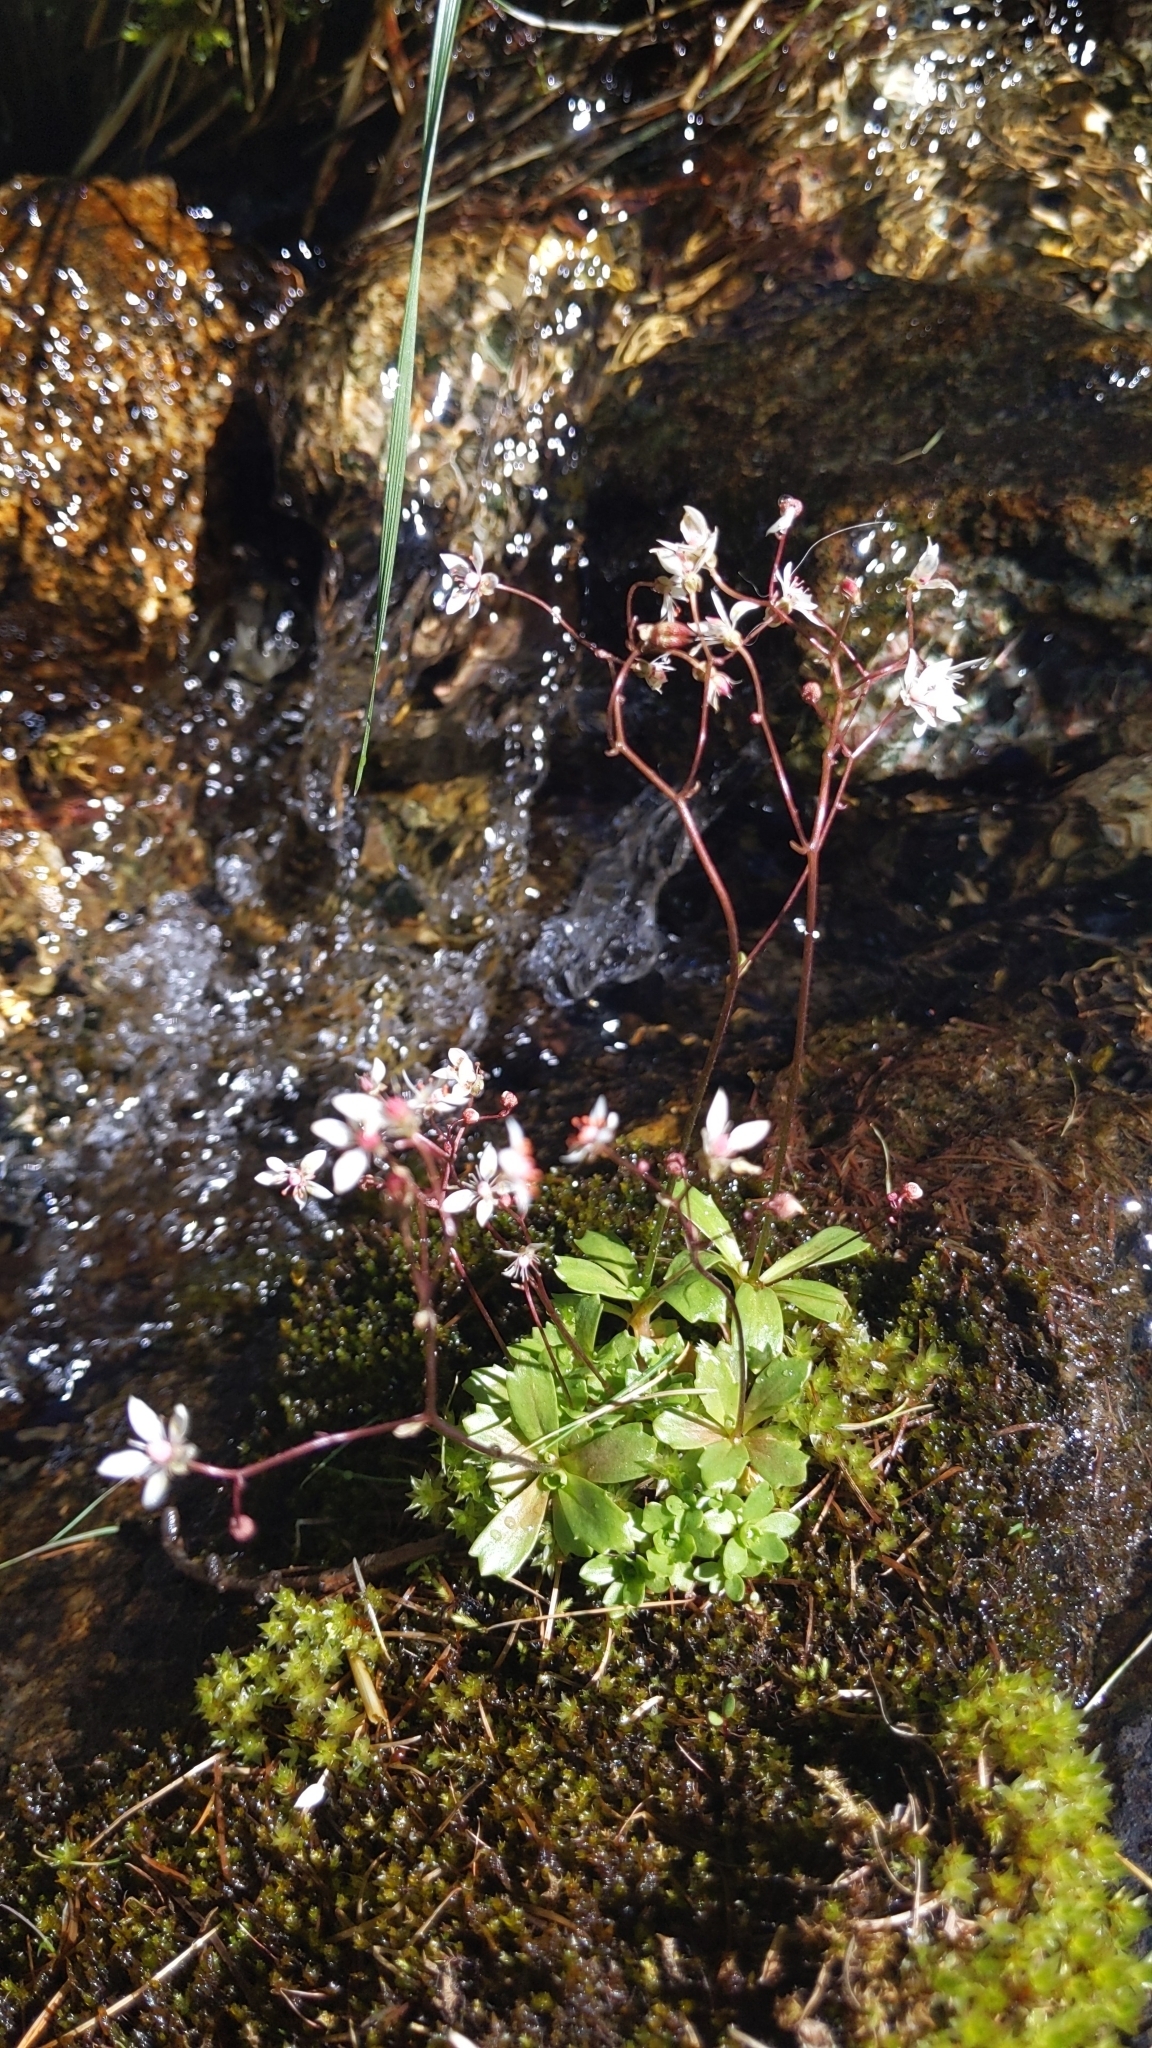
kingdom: Plantae
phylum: Tracheophyta
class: Magnoliopsida
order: Saxifragales
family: Saxifragaceae
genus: Micranthes
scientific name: Micranthes stellaris
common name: Starry saxifrage
